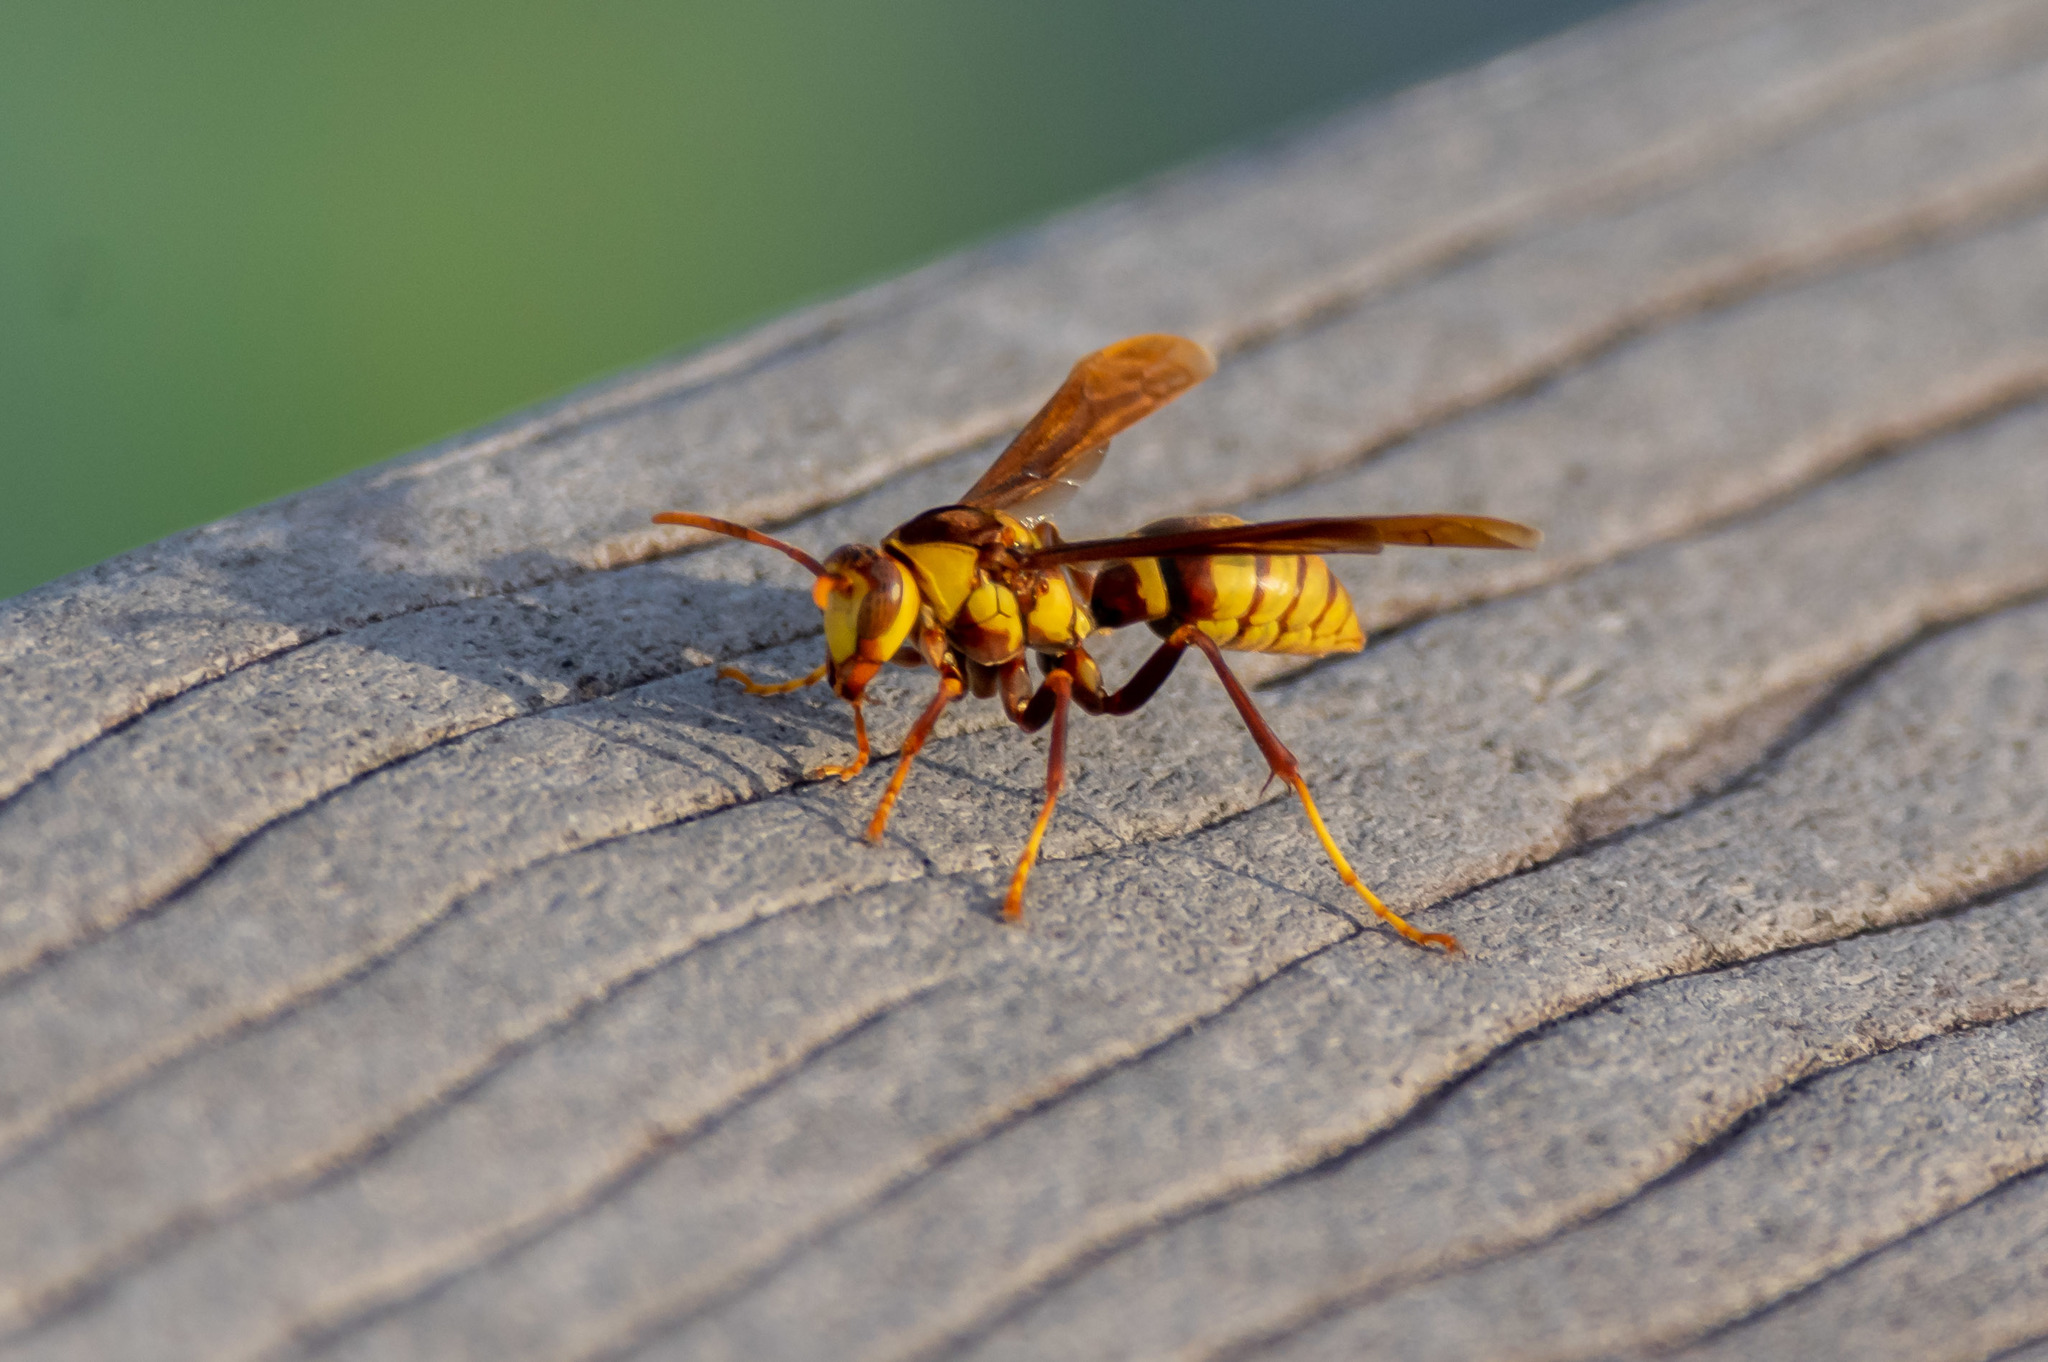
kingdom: Animalia
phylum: Arthropoda
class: Insecta
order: Hymenoptera
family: Eumenidae
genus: Polistes
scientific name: Polistes major
